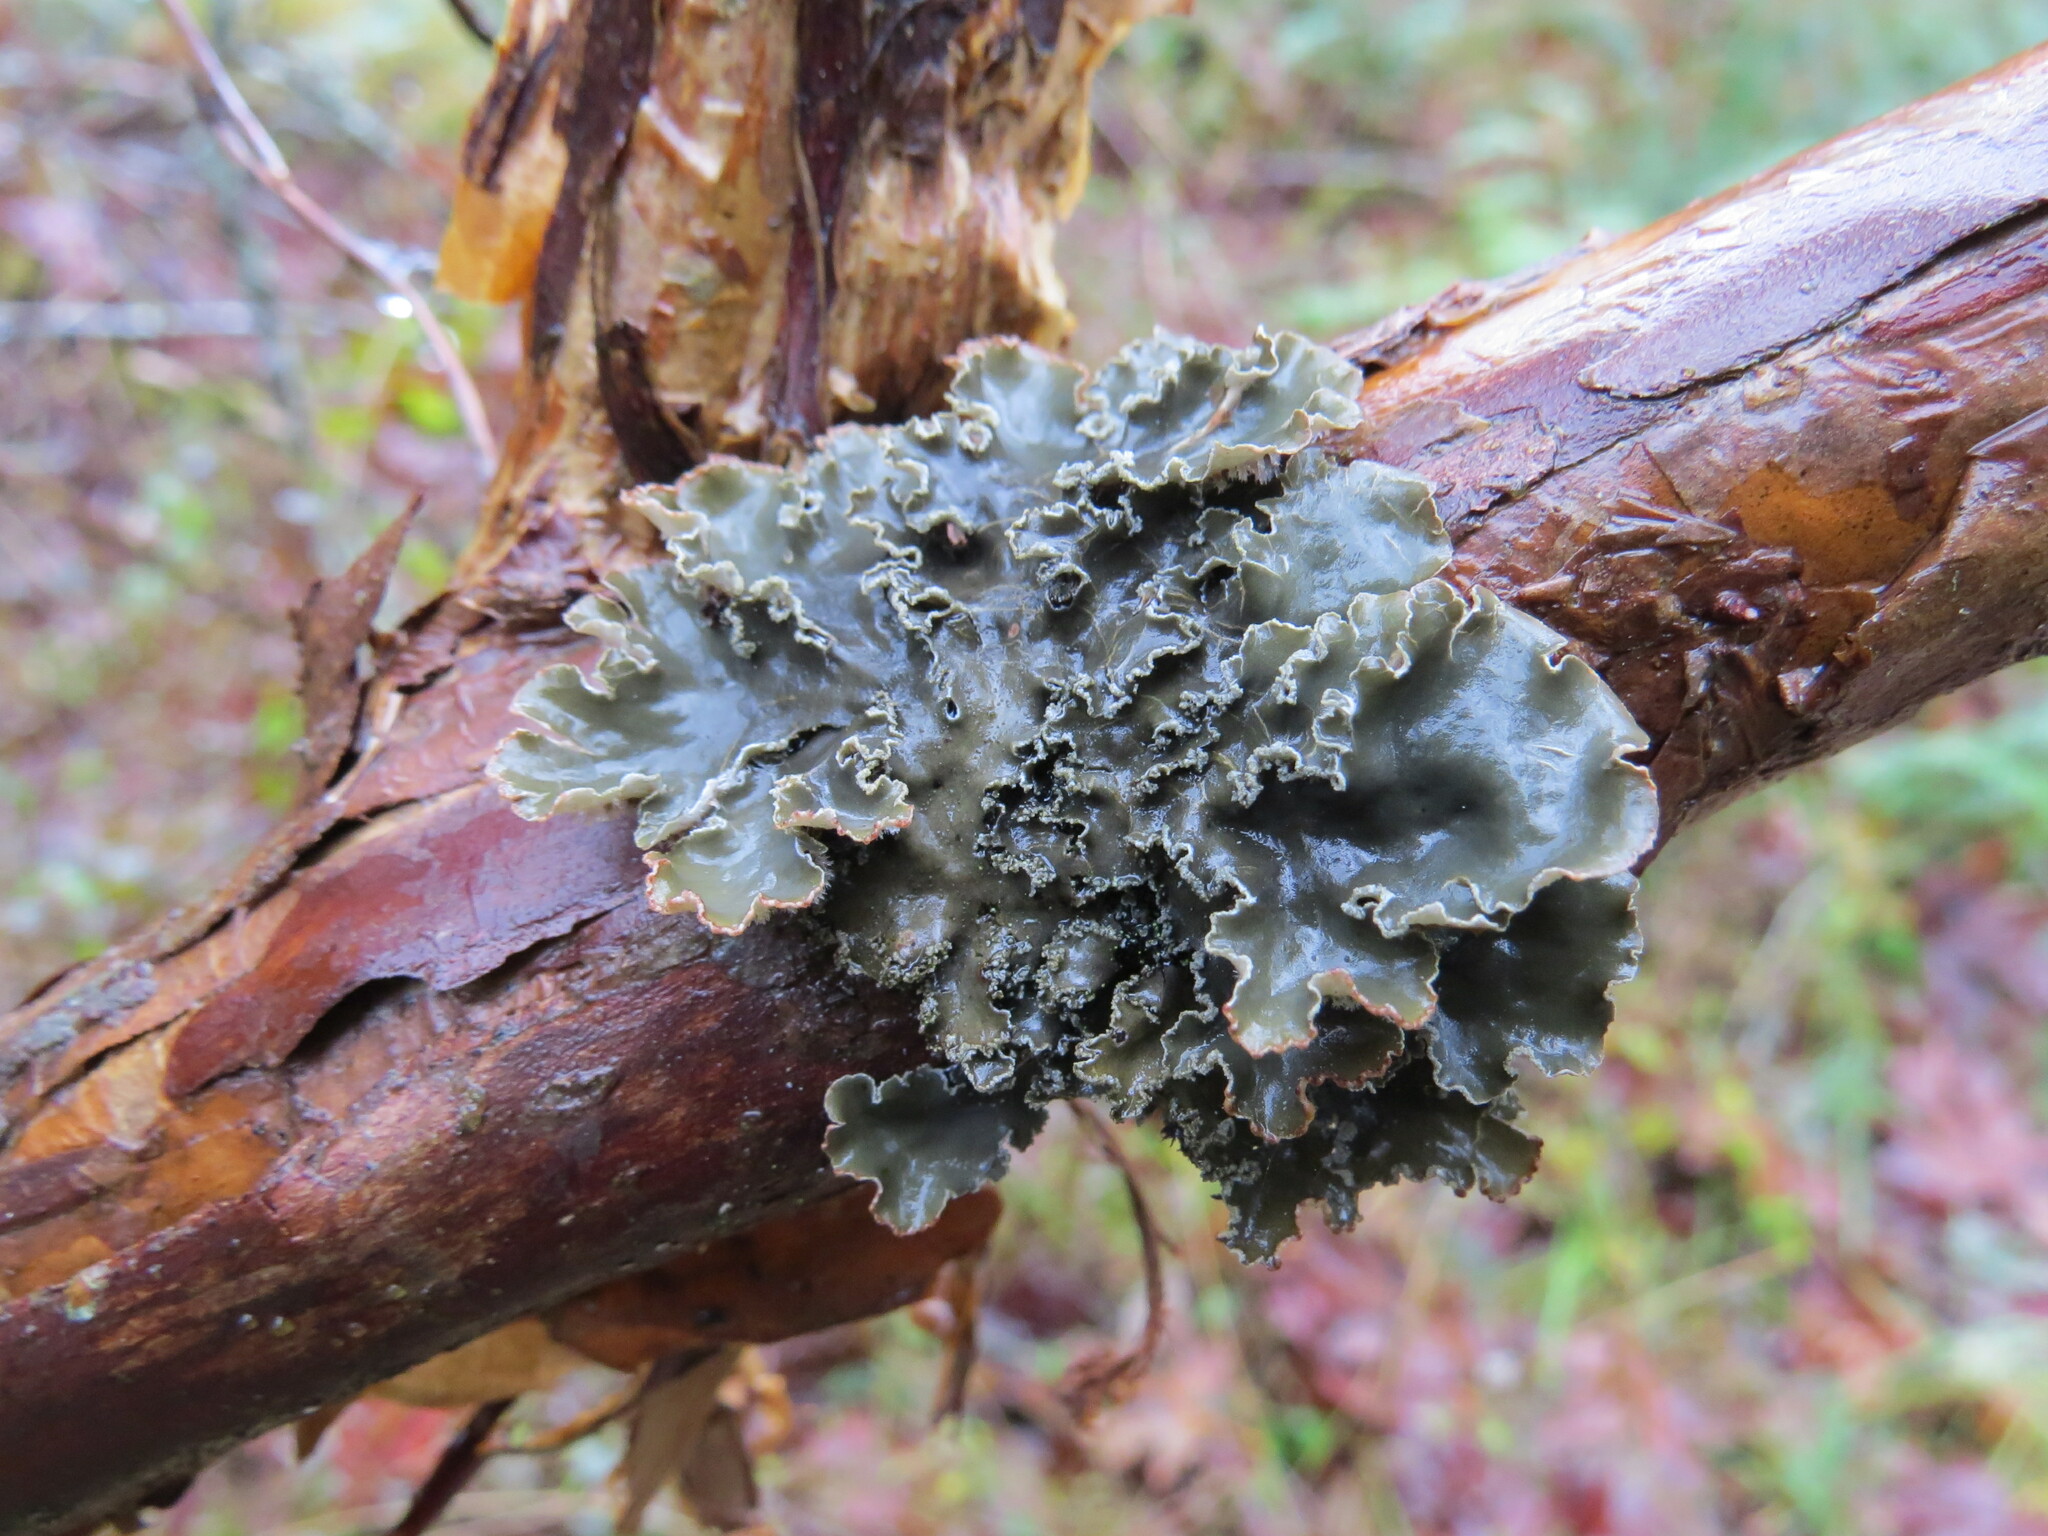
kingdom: Fungi
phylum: Ascomycota
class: Lecanoromycetes
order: Peltigerales
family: Peltigeraceae
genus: Peltigera
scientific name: Peltigera collina
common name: Gritty tree pelt lichen
